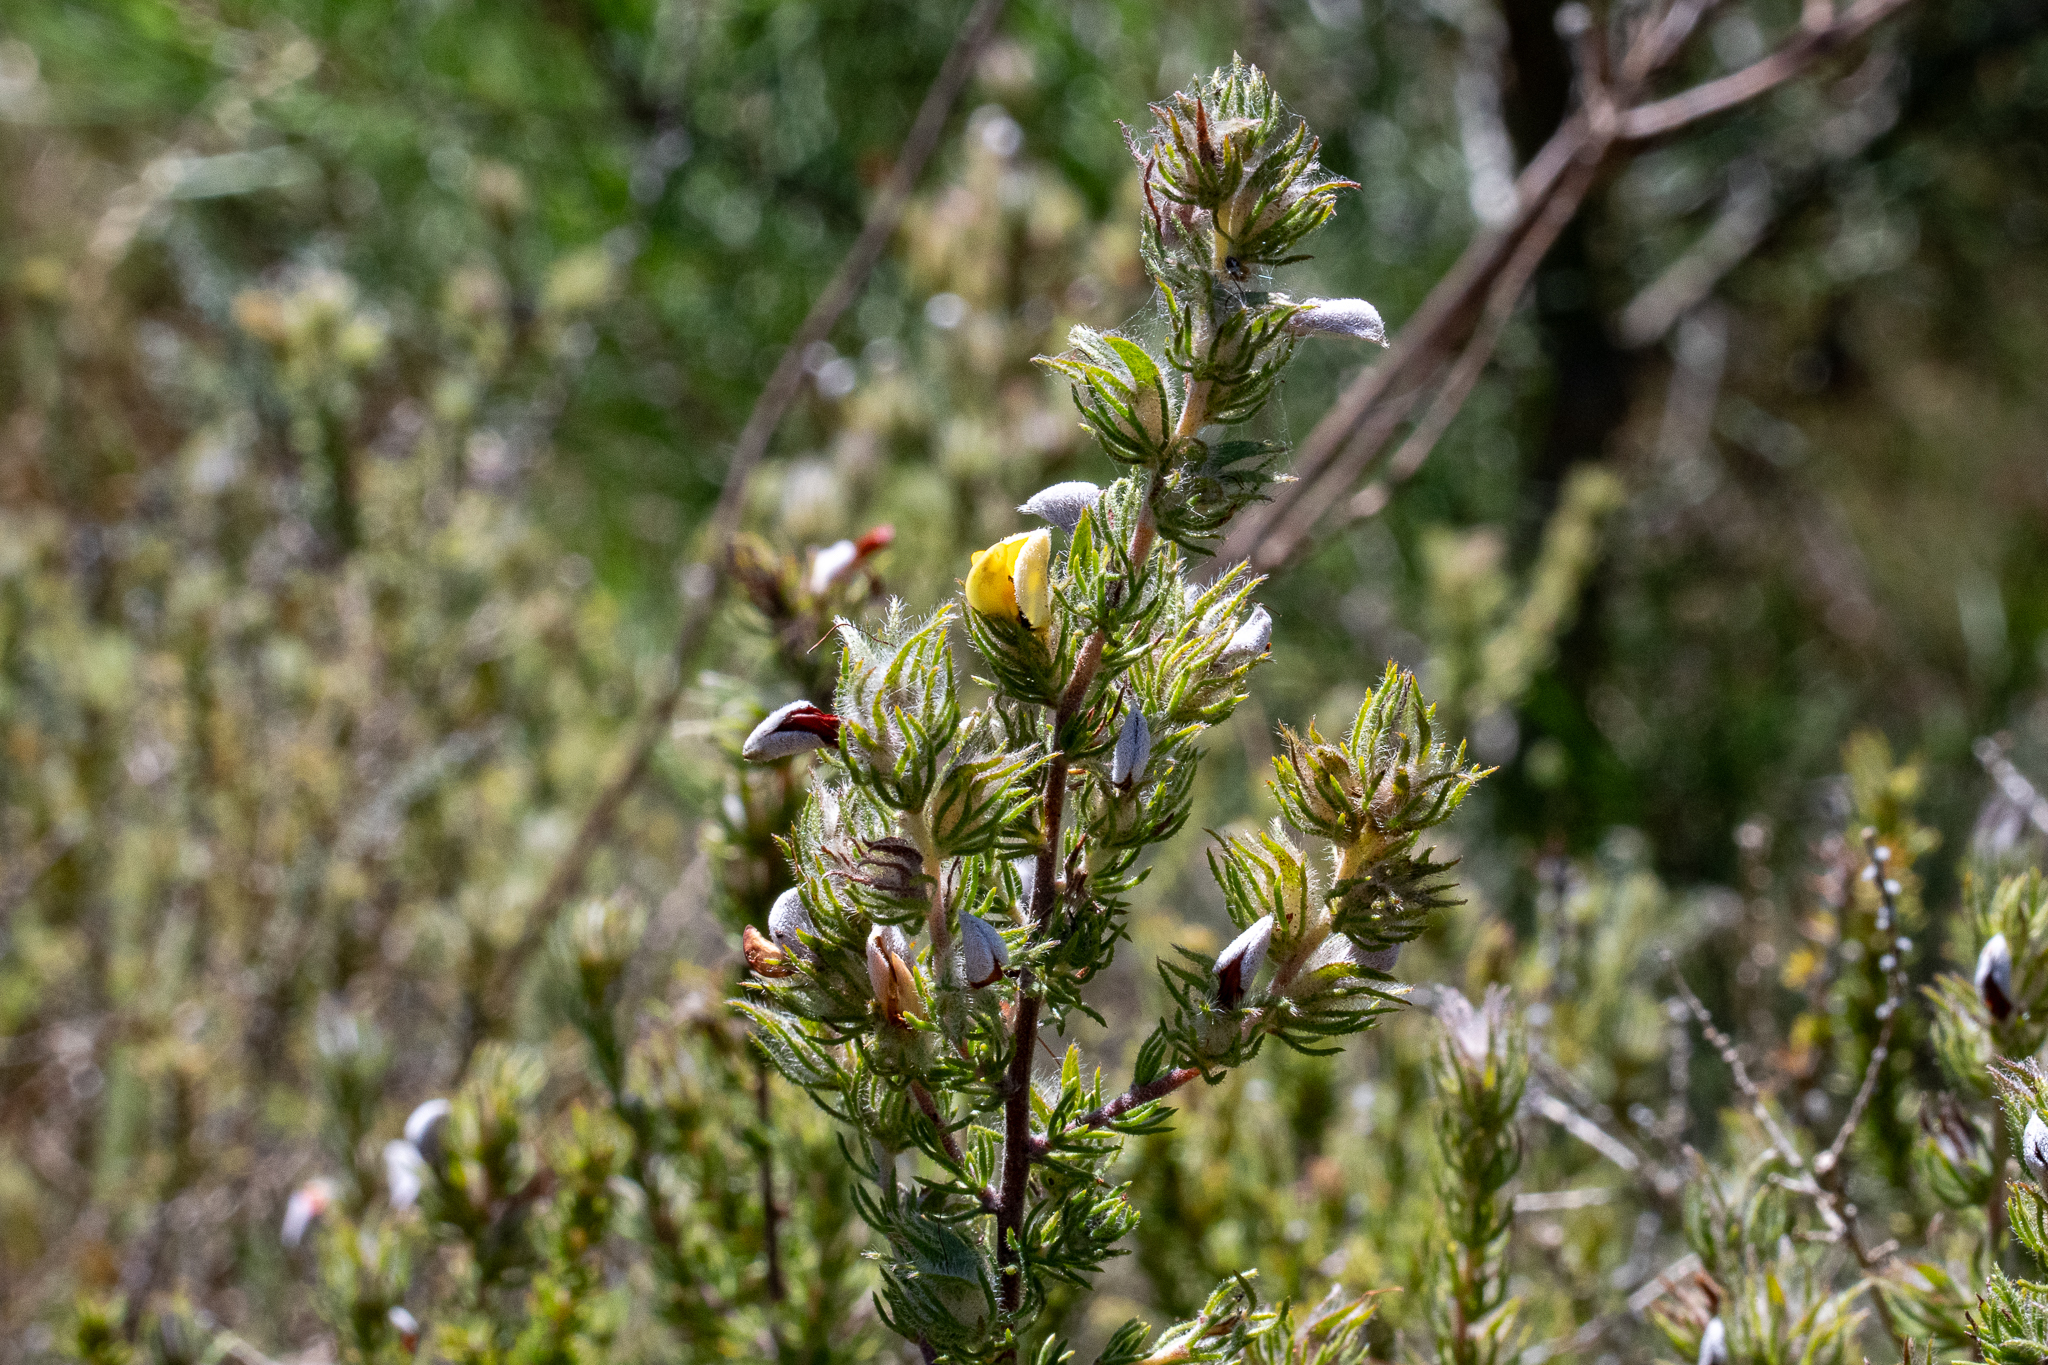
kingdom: Plantae
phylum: Tracheophyta
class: Magnoliopsida
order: Fabales
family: Fabaceae
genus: Aspalathus
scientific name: Aspalathus ciliaris
